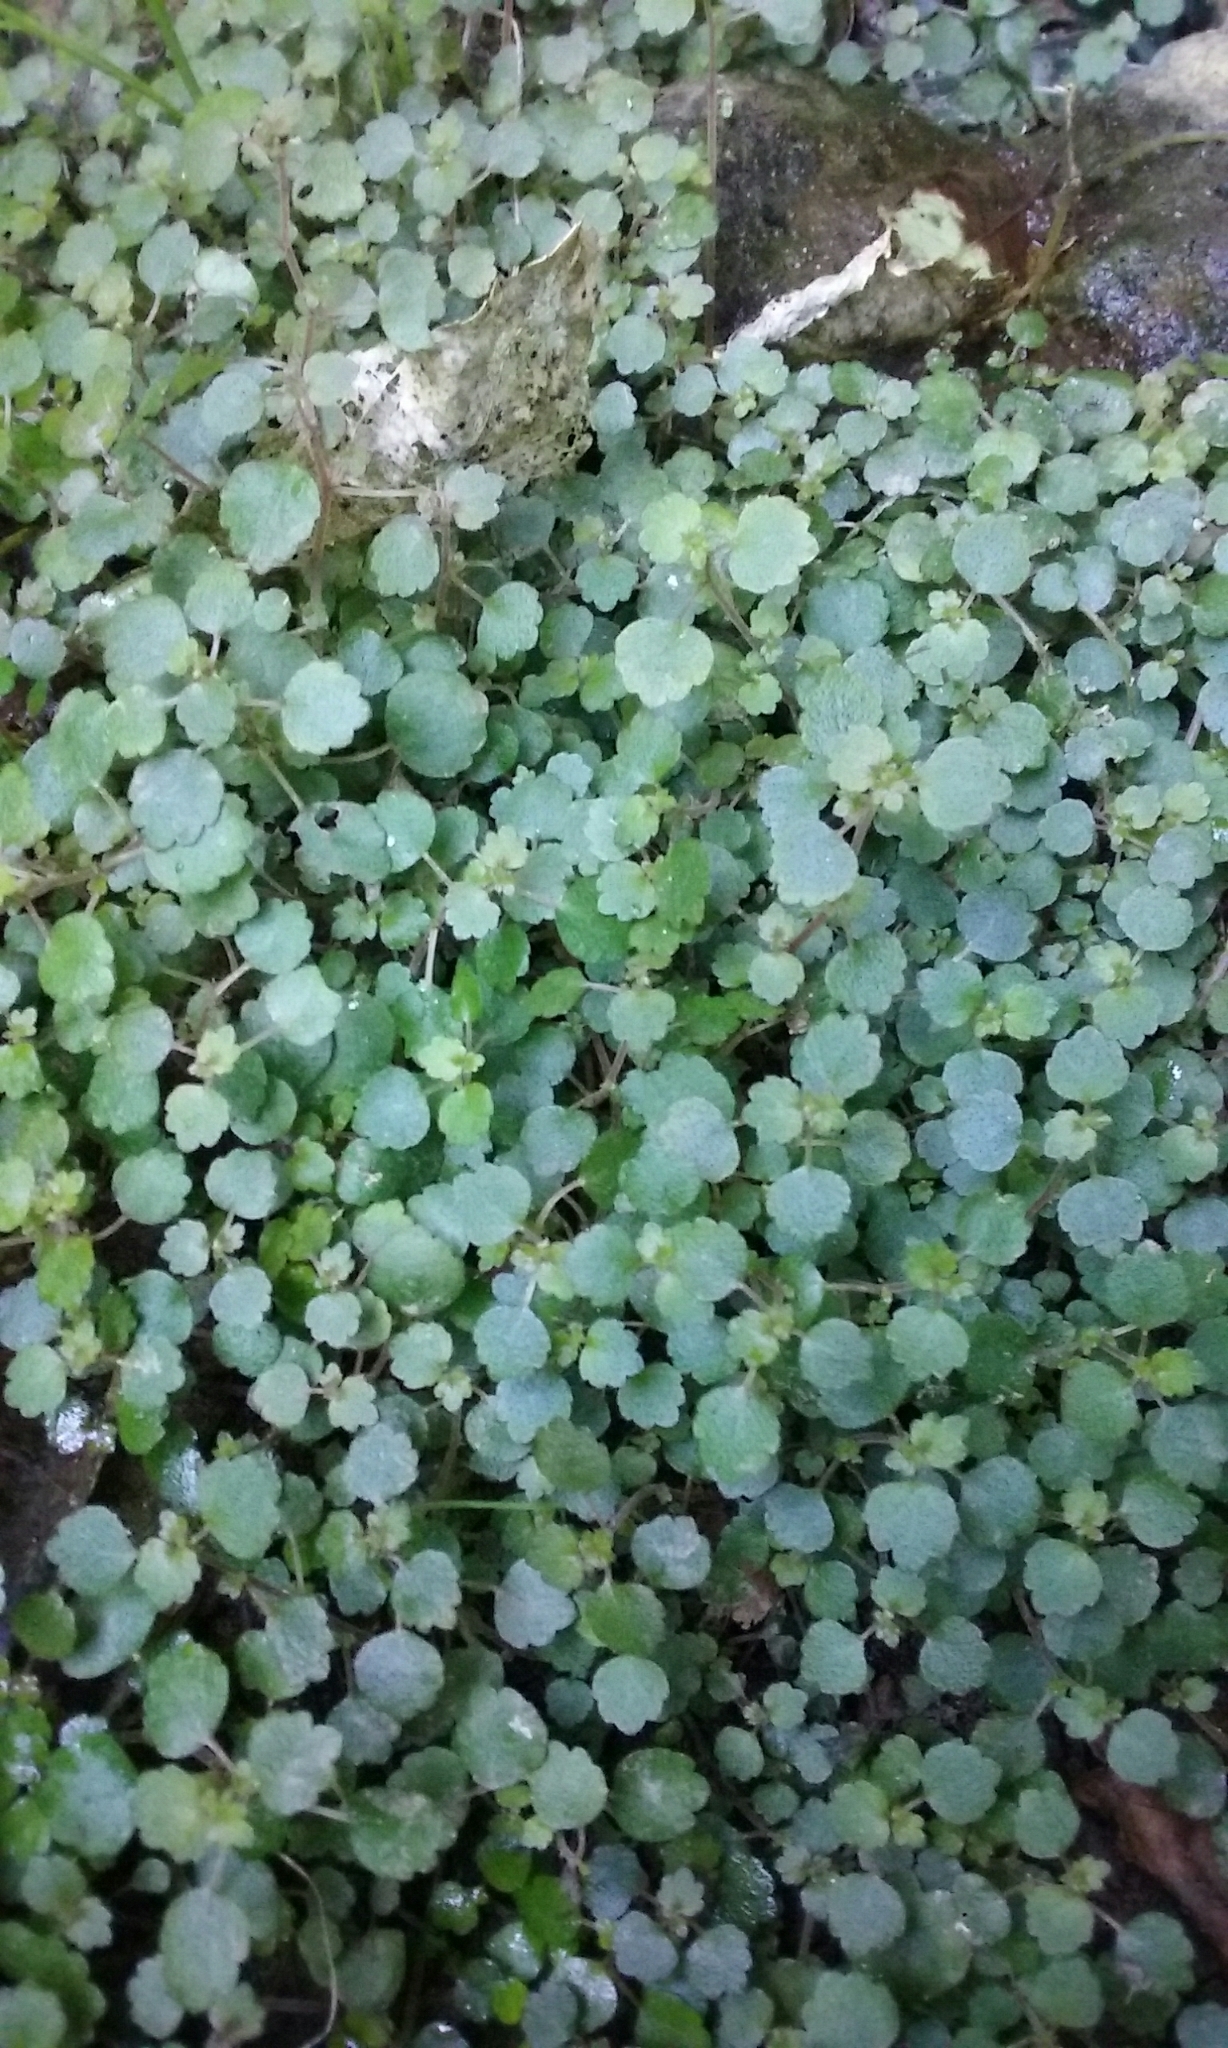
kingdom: Plantae
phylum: Tracheophyta
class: Magnoliopsida
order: Rosales
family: Urticaceae
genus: Australina
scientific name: Australina pusilla
